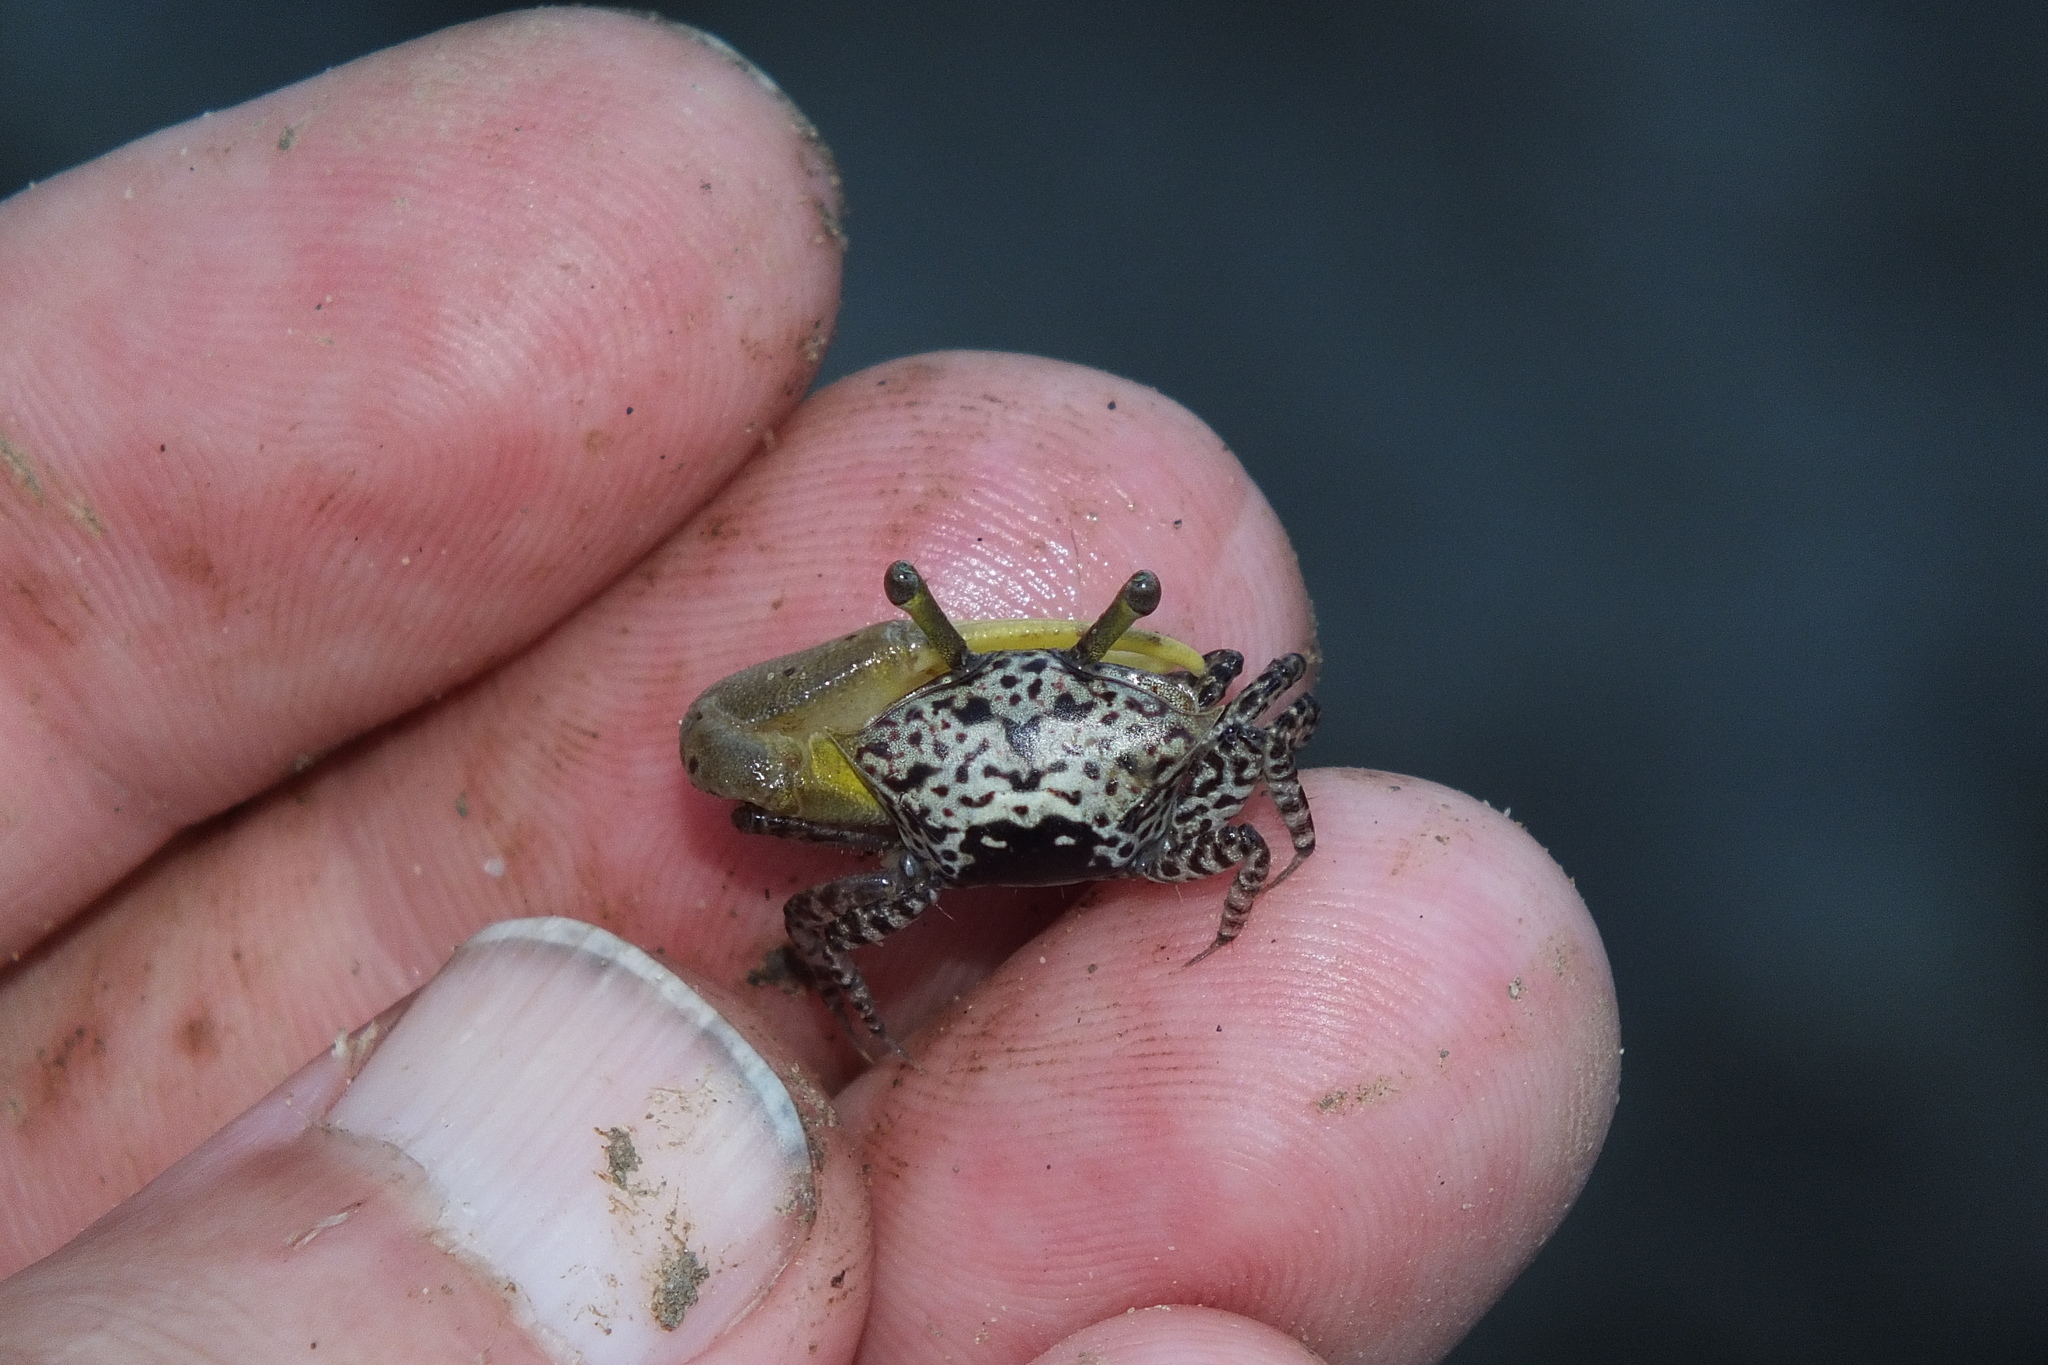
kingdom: Animalia
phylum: Arthropoda
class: Malacostraca
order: Decapoda
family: Ocypodidae
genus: Austruca
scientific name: Austruca triangularis
